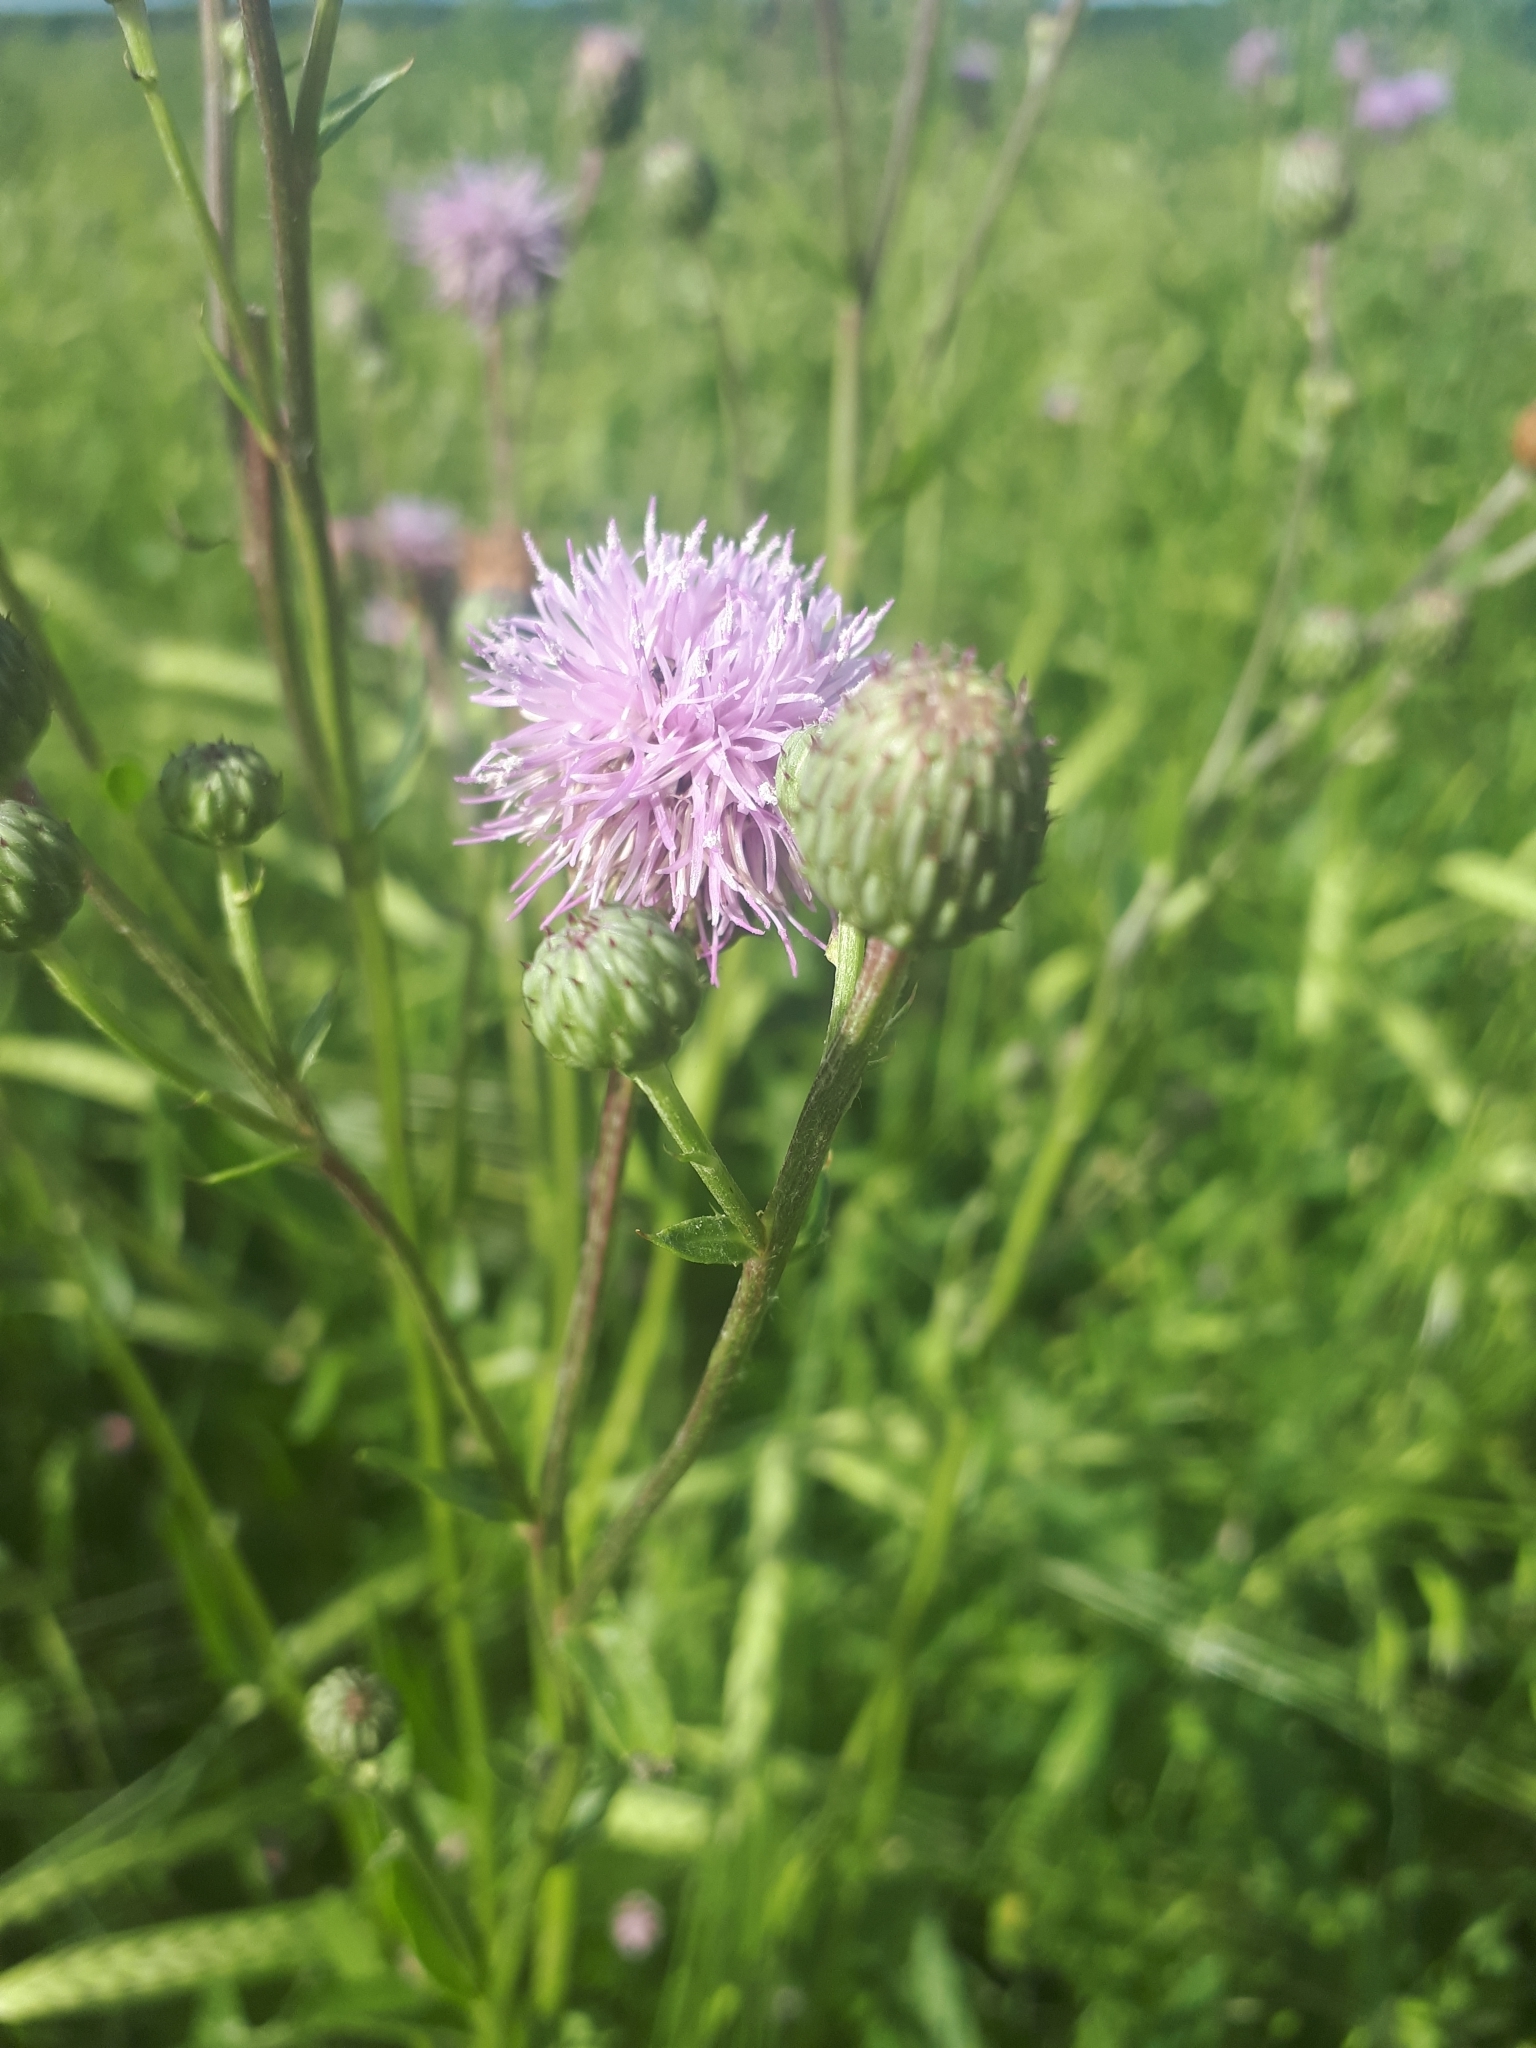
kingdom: Plantae
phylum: Tracheophyta
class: Magnoliopsida
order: Asterales
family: Asteraceae
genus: Cirsium
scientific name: Cirsium arvense
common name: Creeping thistle
